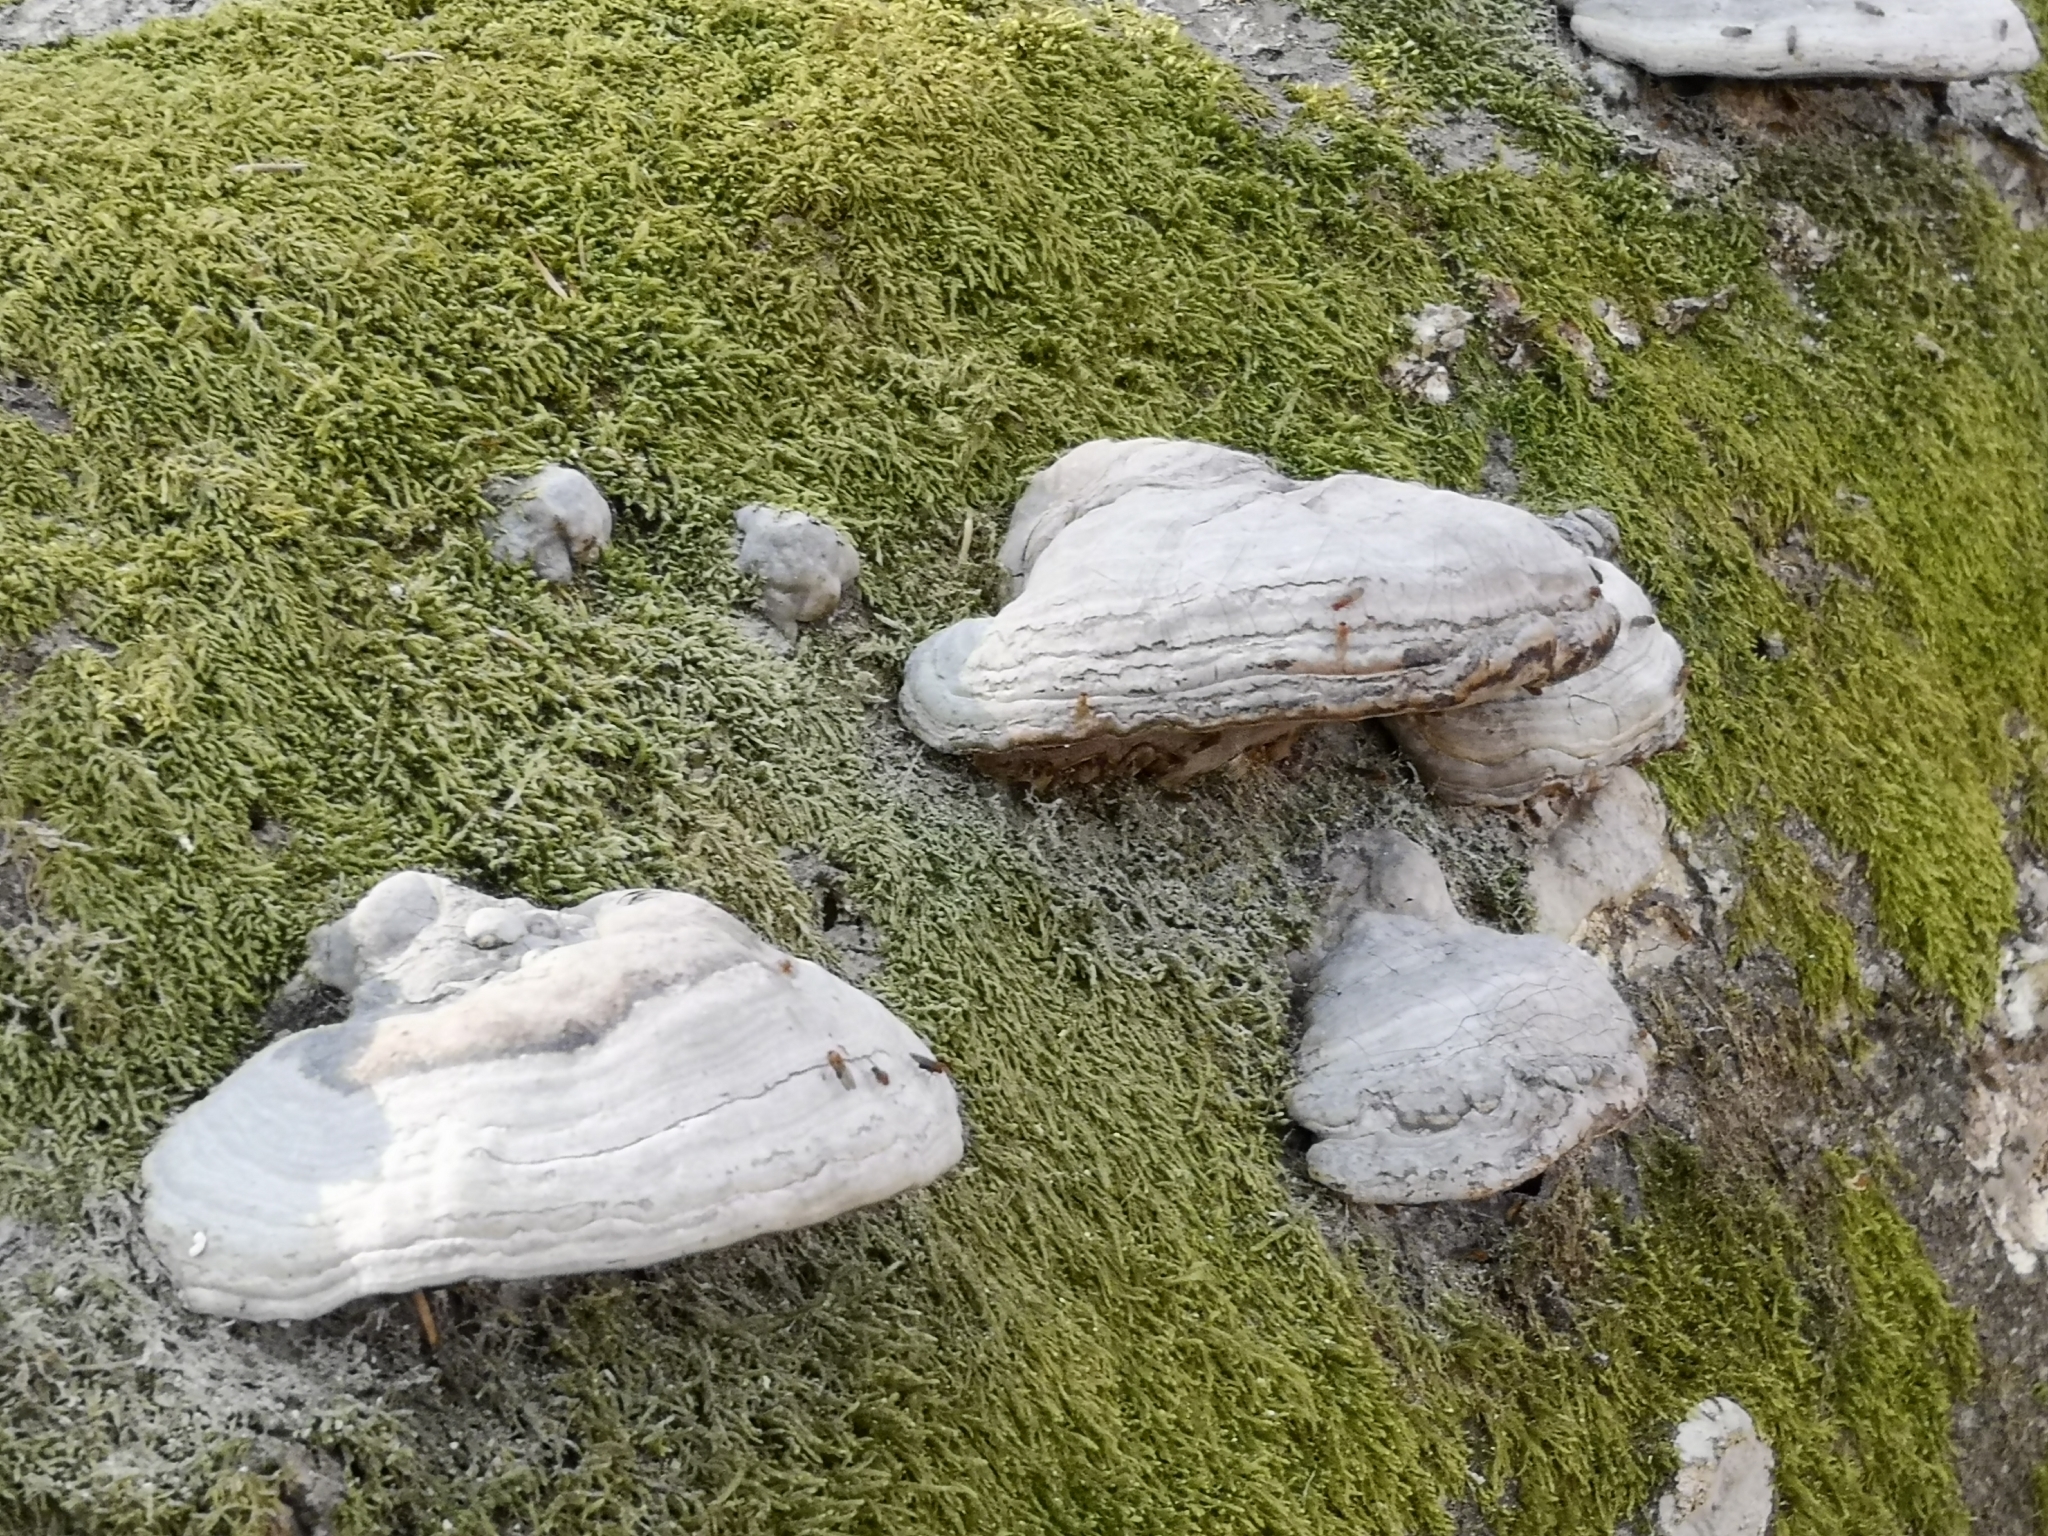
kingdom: Fungi
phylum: Basidiomycota
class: Agaricomycetes
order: Polyporales
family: Polyporaceae
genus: Fomes
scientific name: Fomes fomentarius
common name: Hoof fungus
